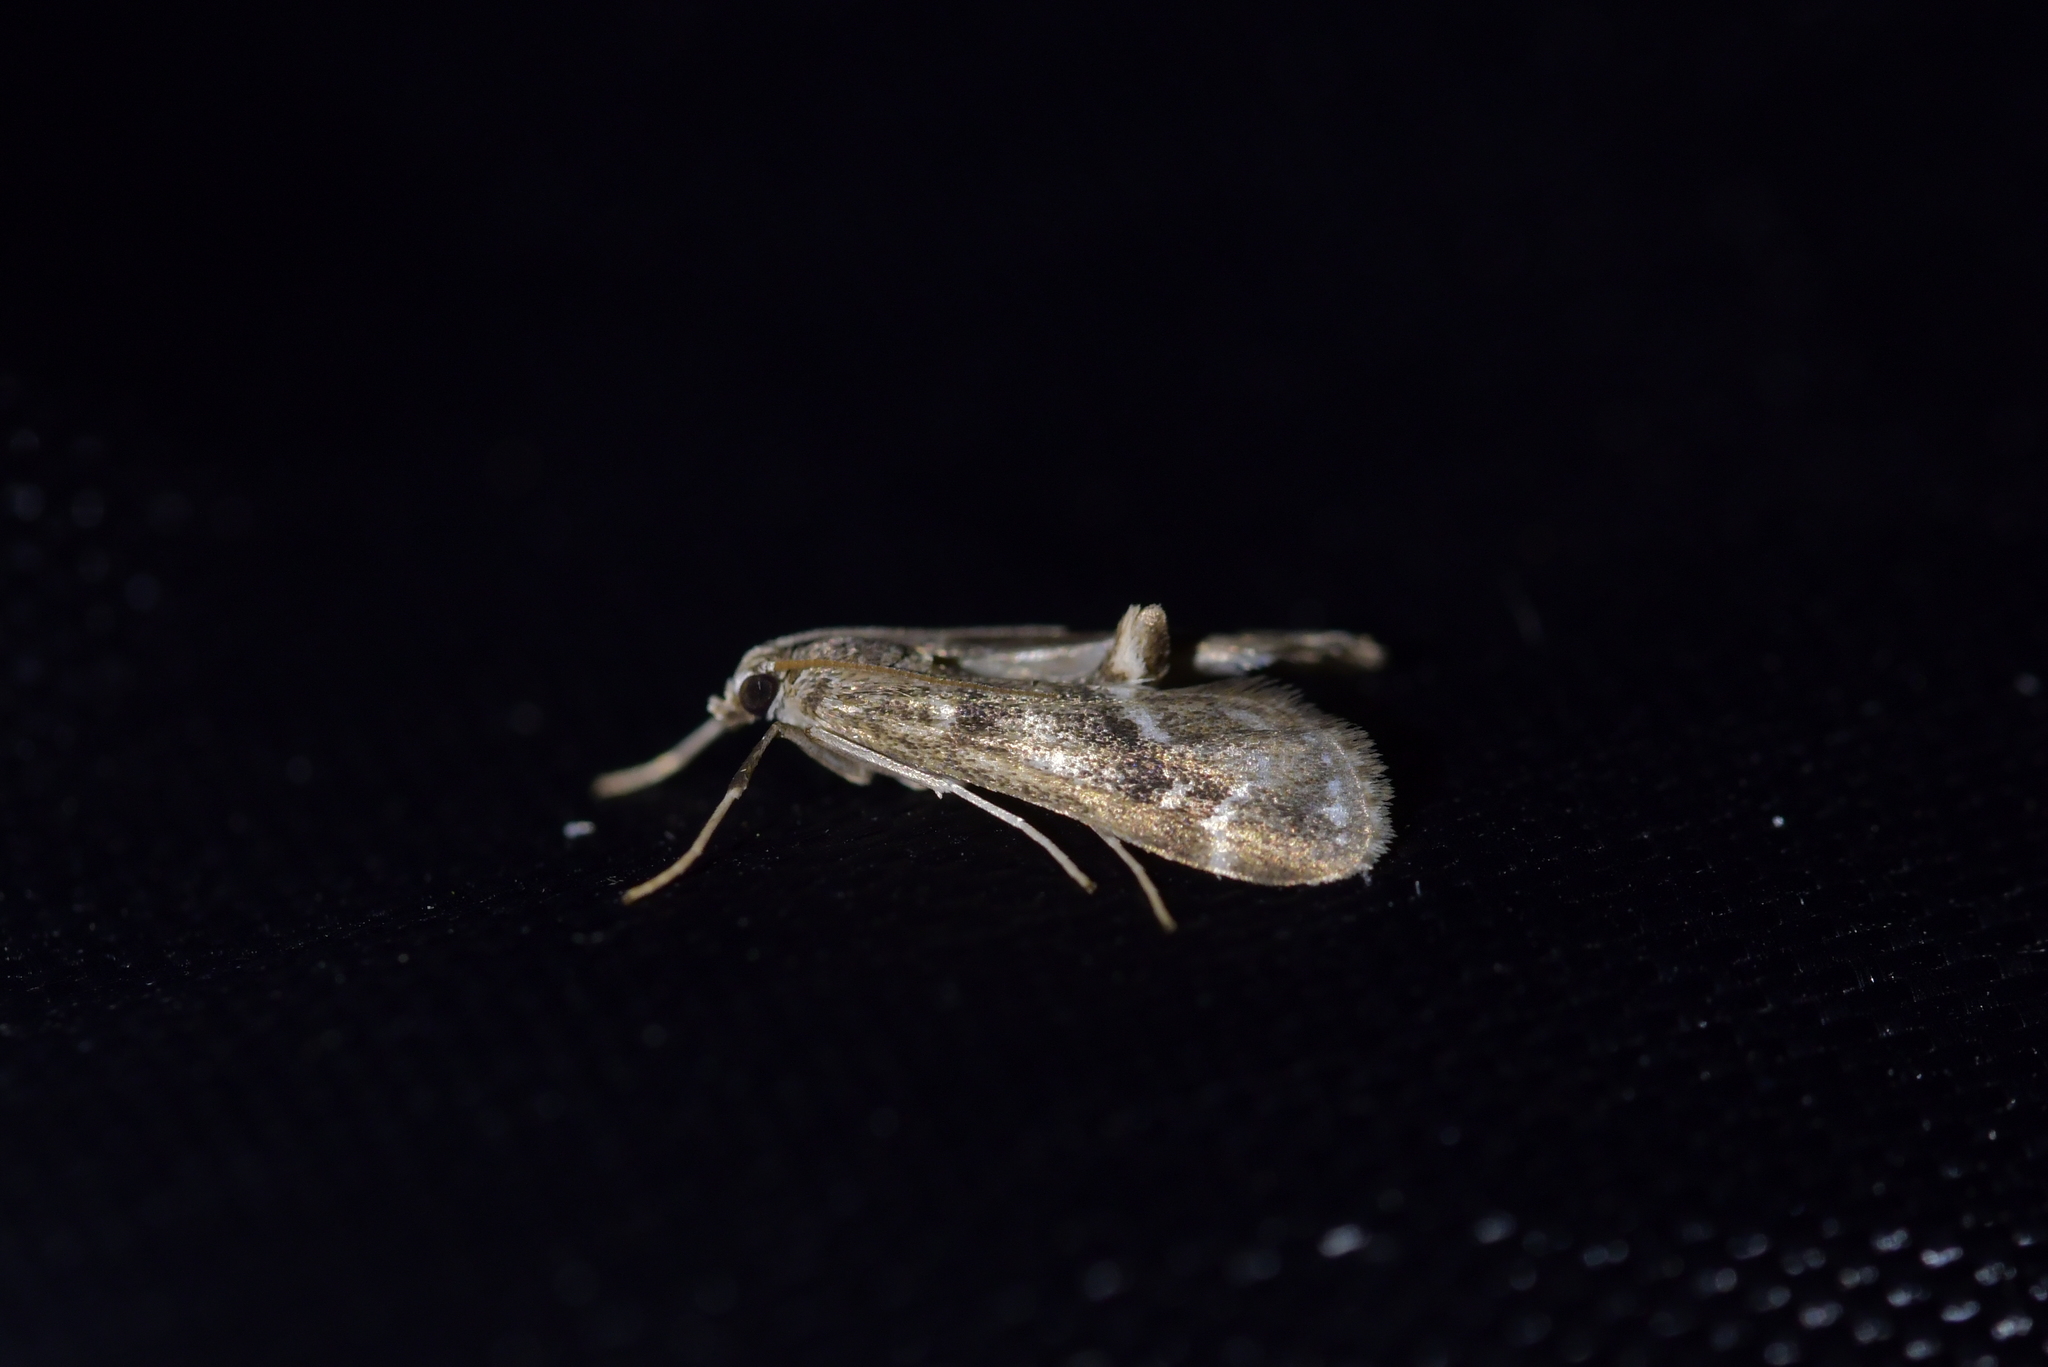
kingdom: Animalia
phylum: Arthropoda
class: Insecta
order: Lepidoptera
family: Crambidae
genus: Hygraula
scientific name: Hygraula nitens
